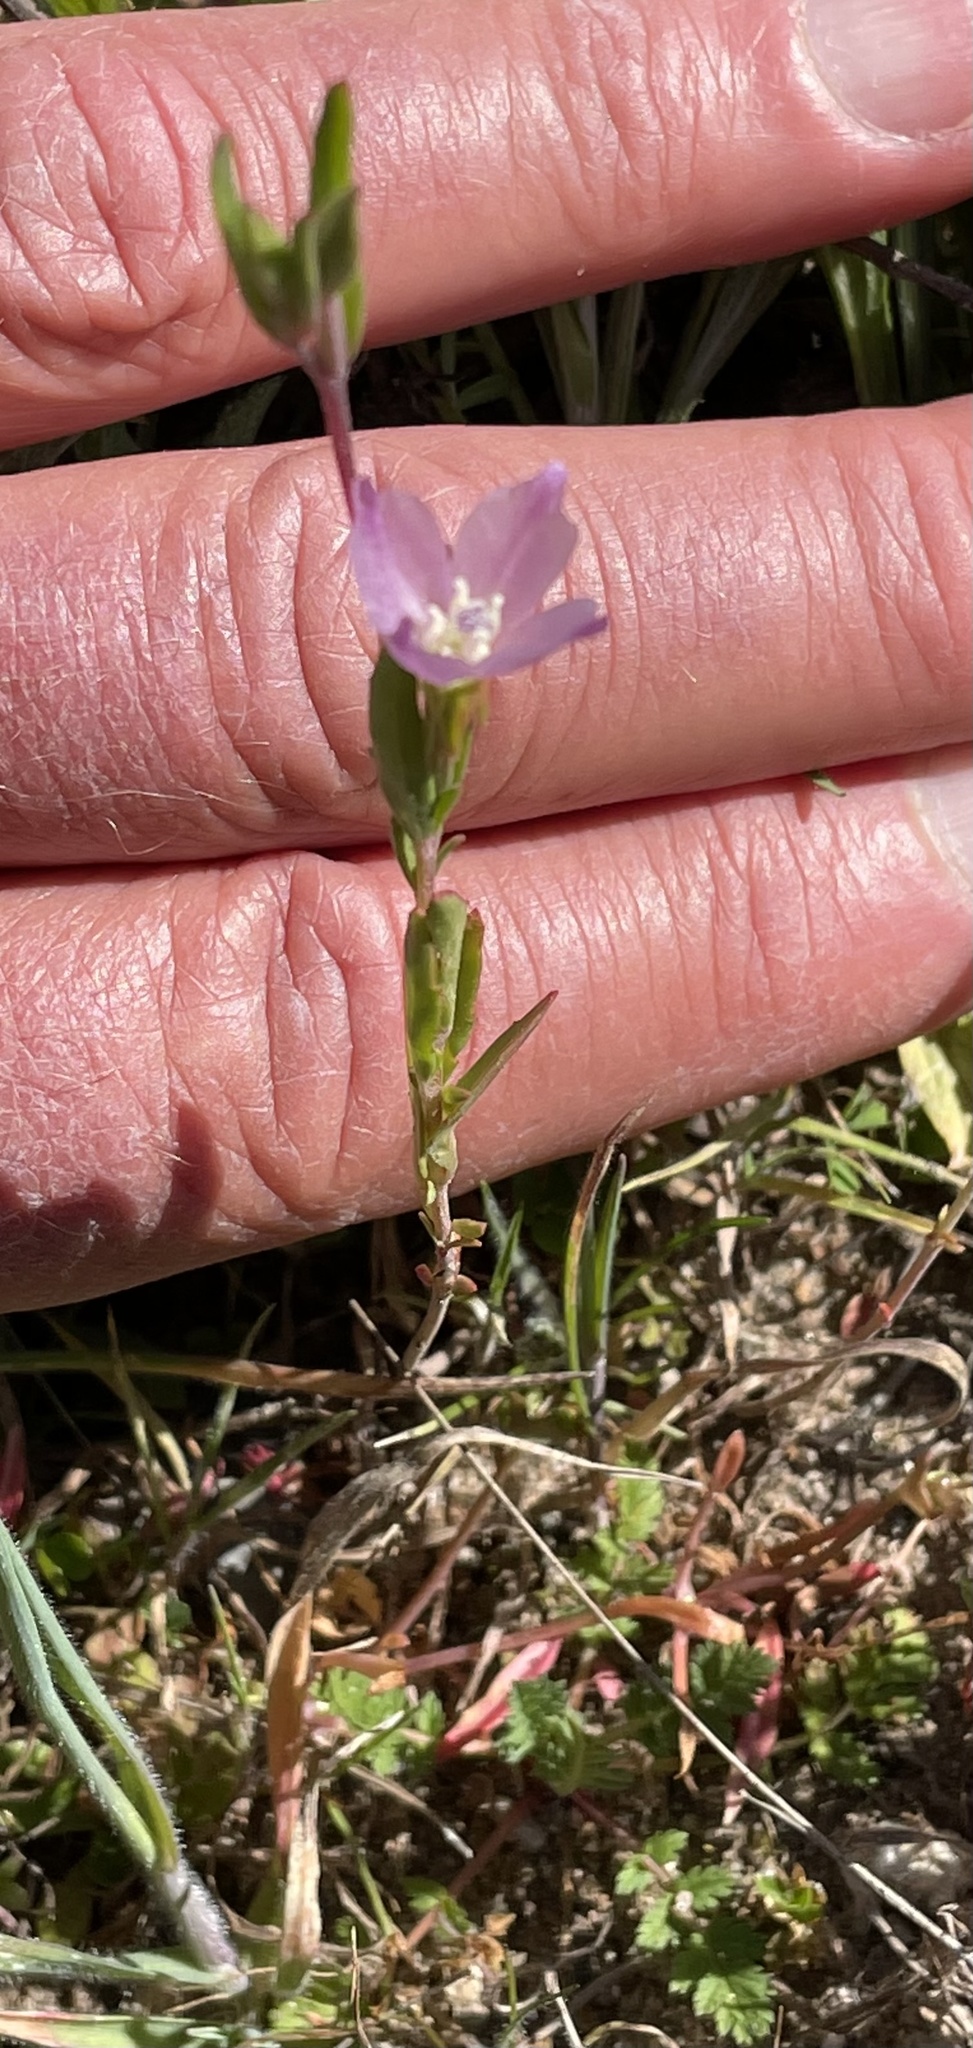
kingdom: Plantae
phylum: Tracheophyta
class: Magnoliopsida
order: Myrtales
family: Onagraceae
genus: Clarkia
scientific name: Clarkia purpurea
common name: Purple clarkia
